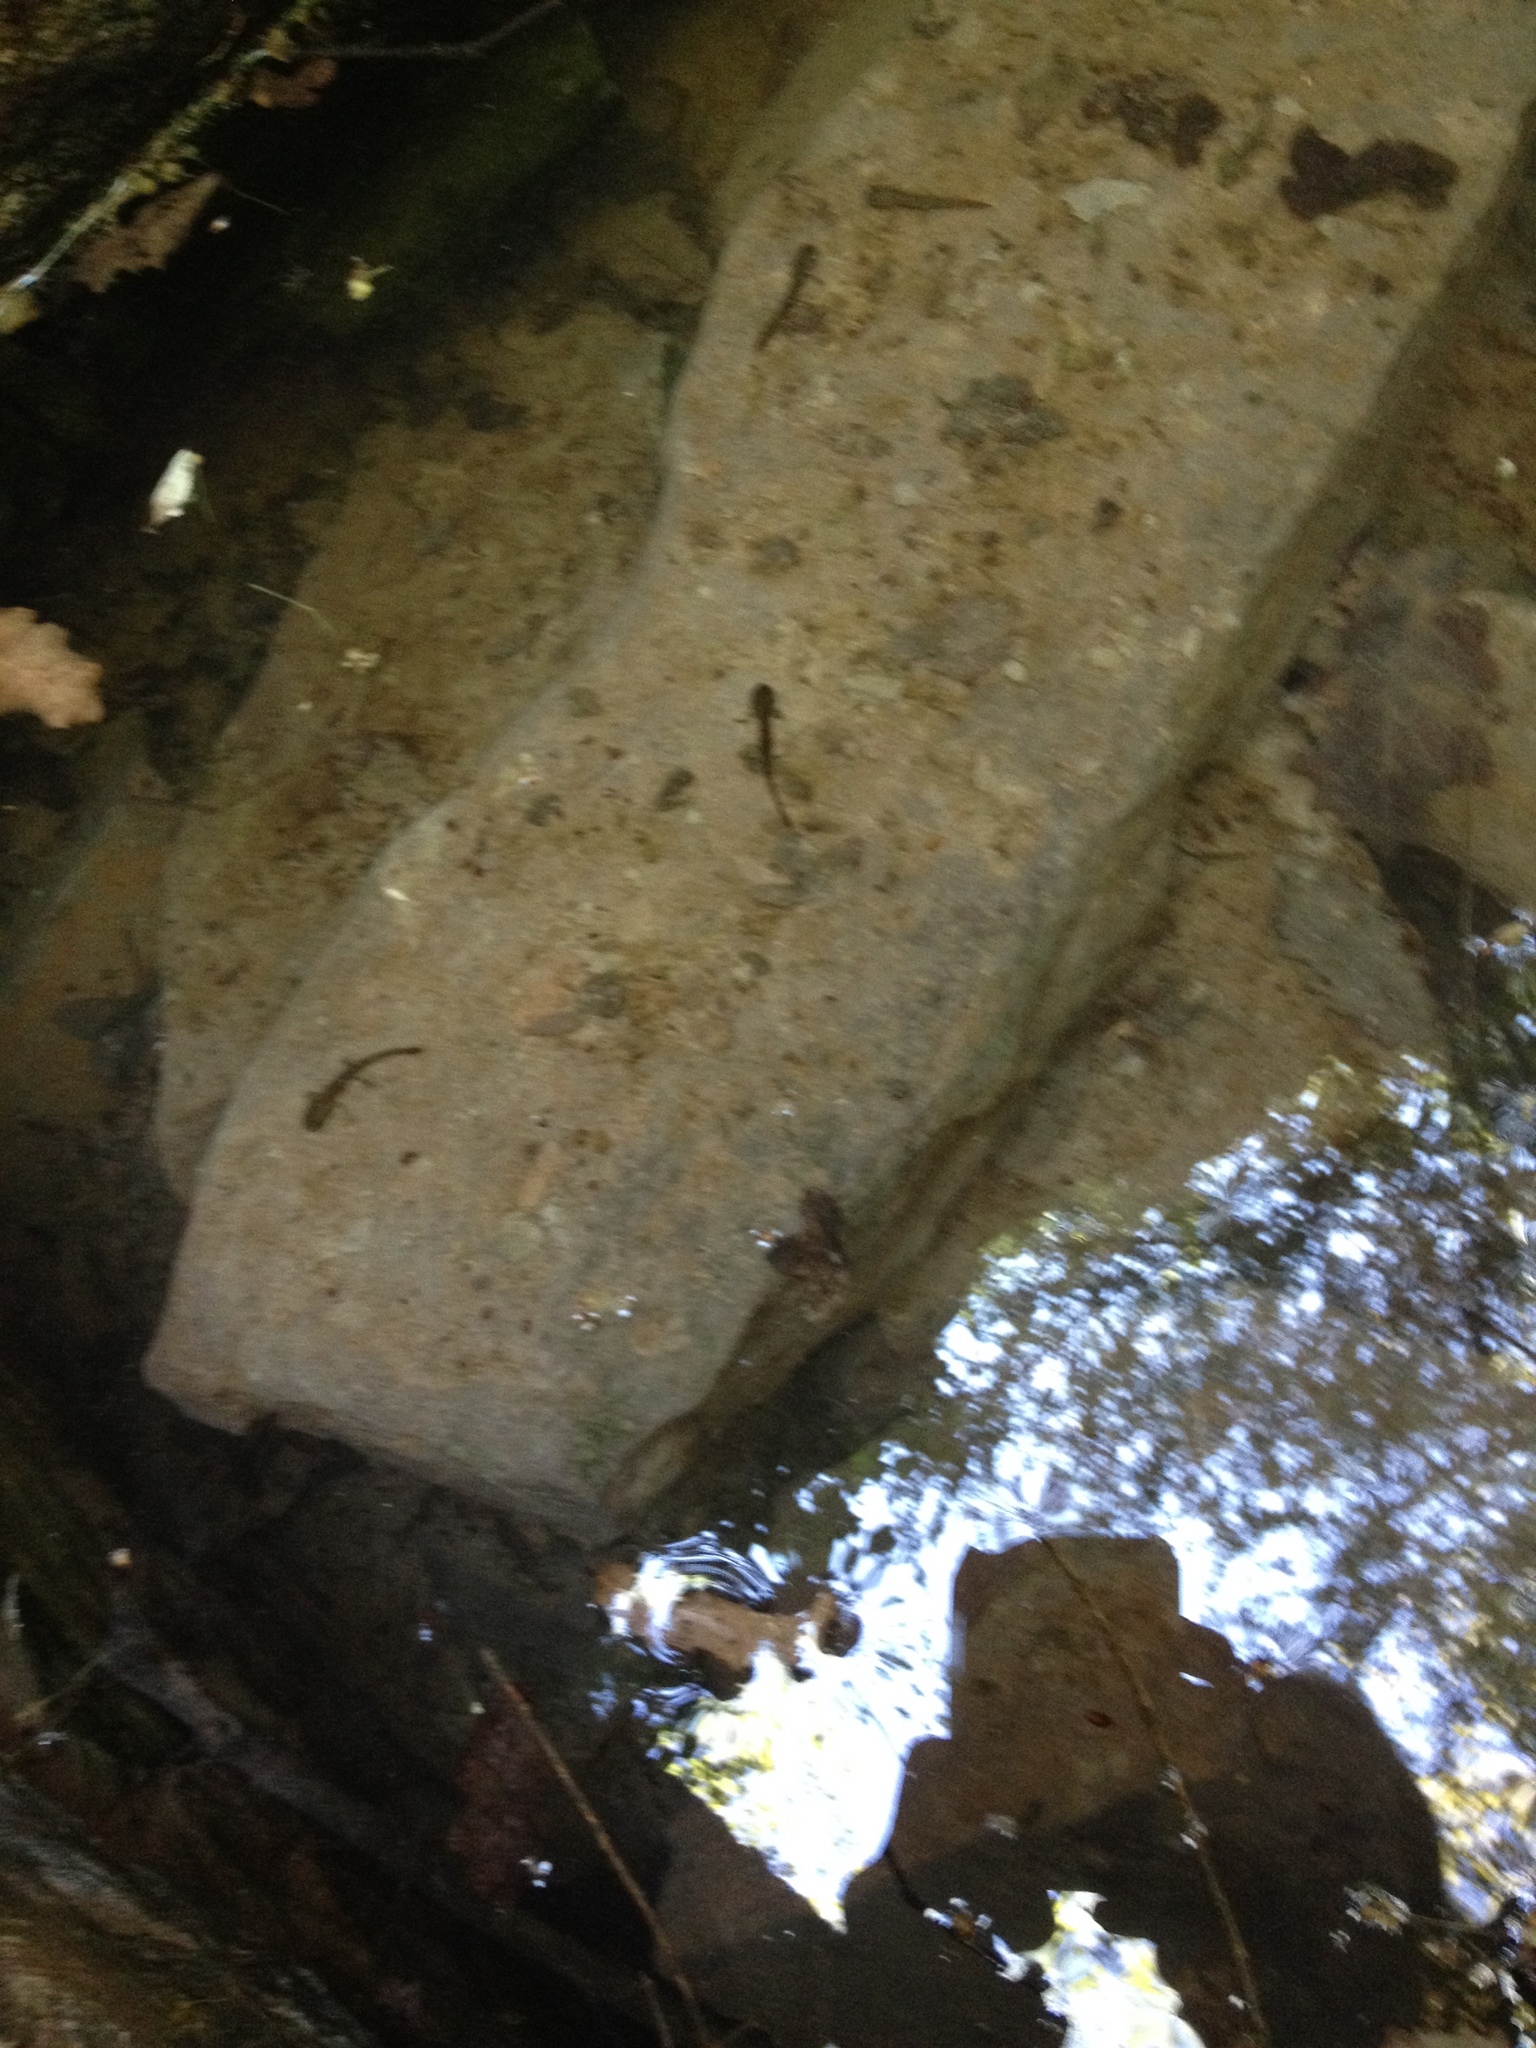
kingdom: Animalia
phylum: Chordata
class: Amphibia
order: Caudata
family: Salamandridae
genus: Salamandra
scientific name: Salamandra salamandra
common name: Fire salamander
